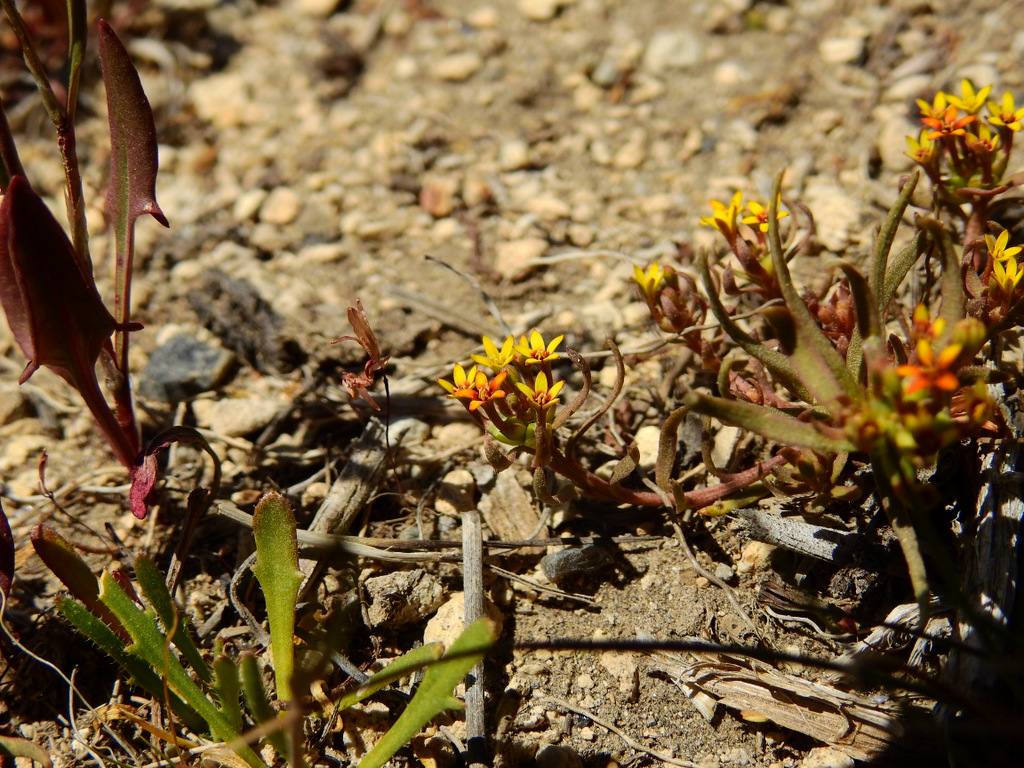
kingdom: Plantae
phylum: Tracheophyta
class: Magnoliopsida
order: Santalales
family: Schoepfiaceae
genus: Quinchamalium
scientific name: Quinchamalium chilense
